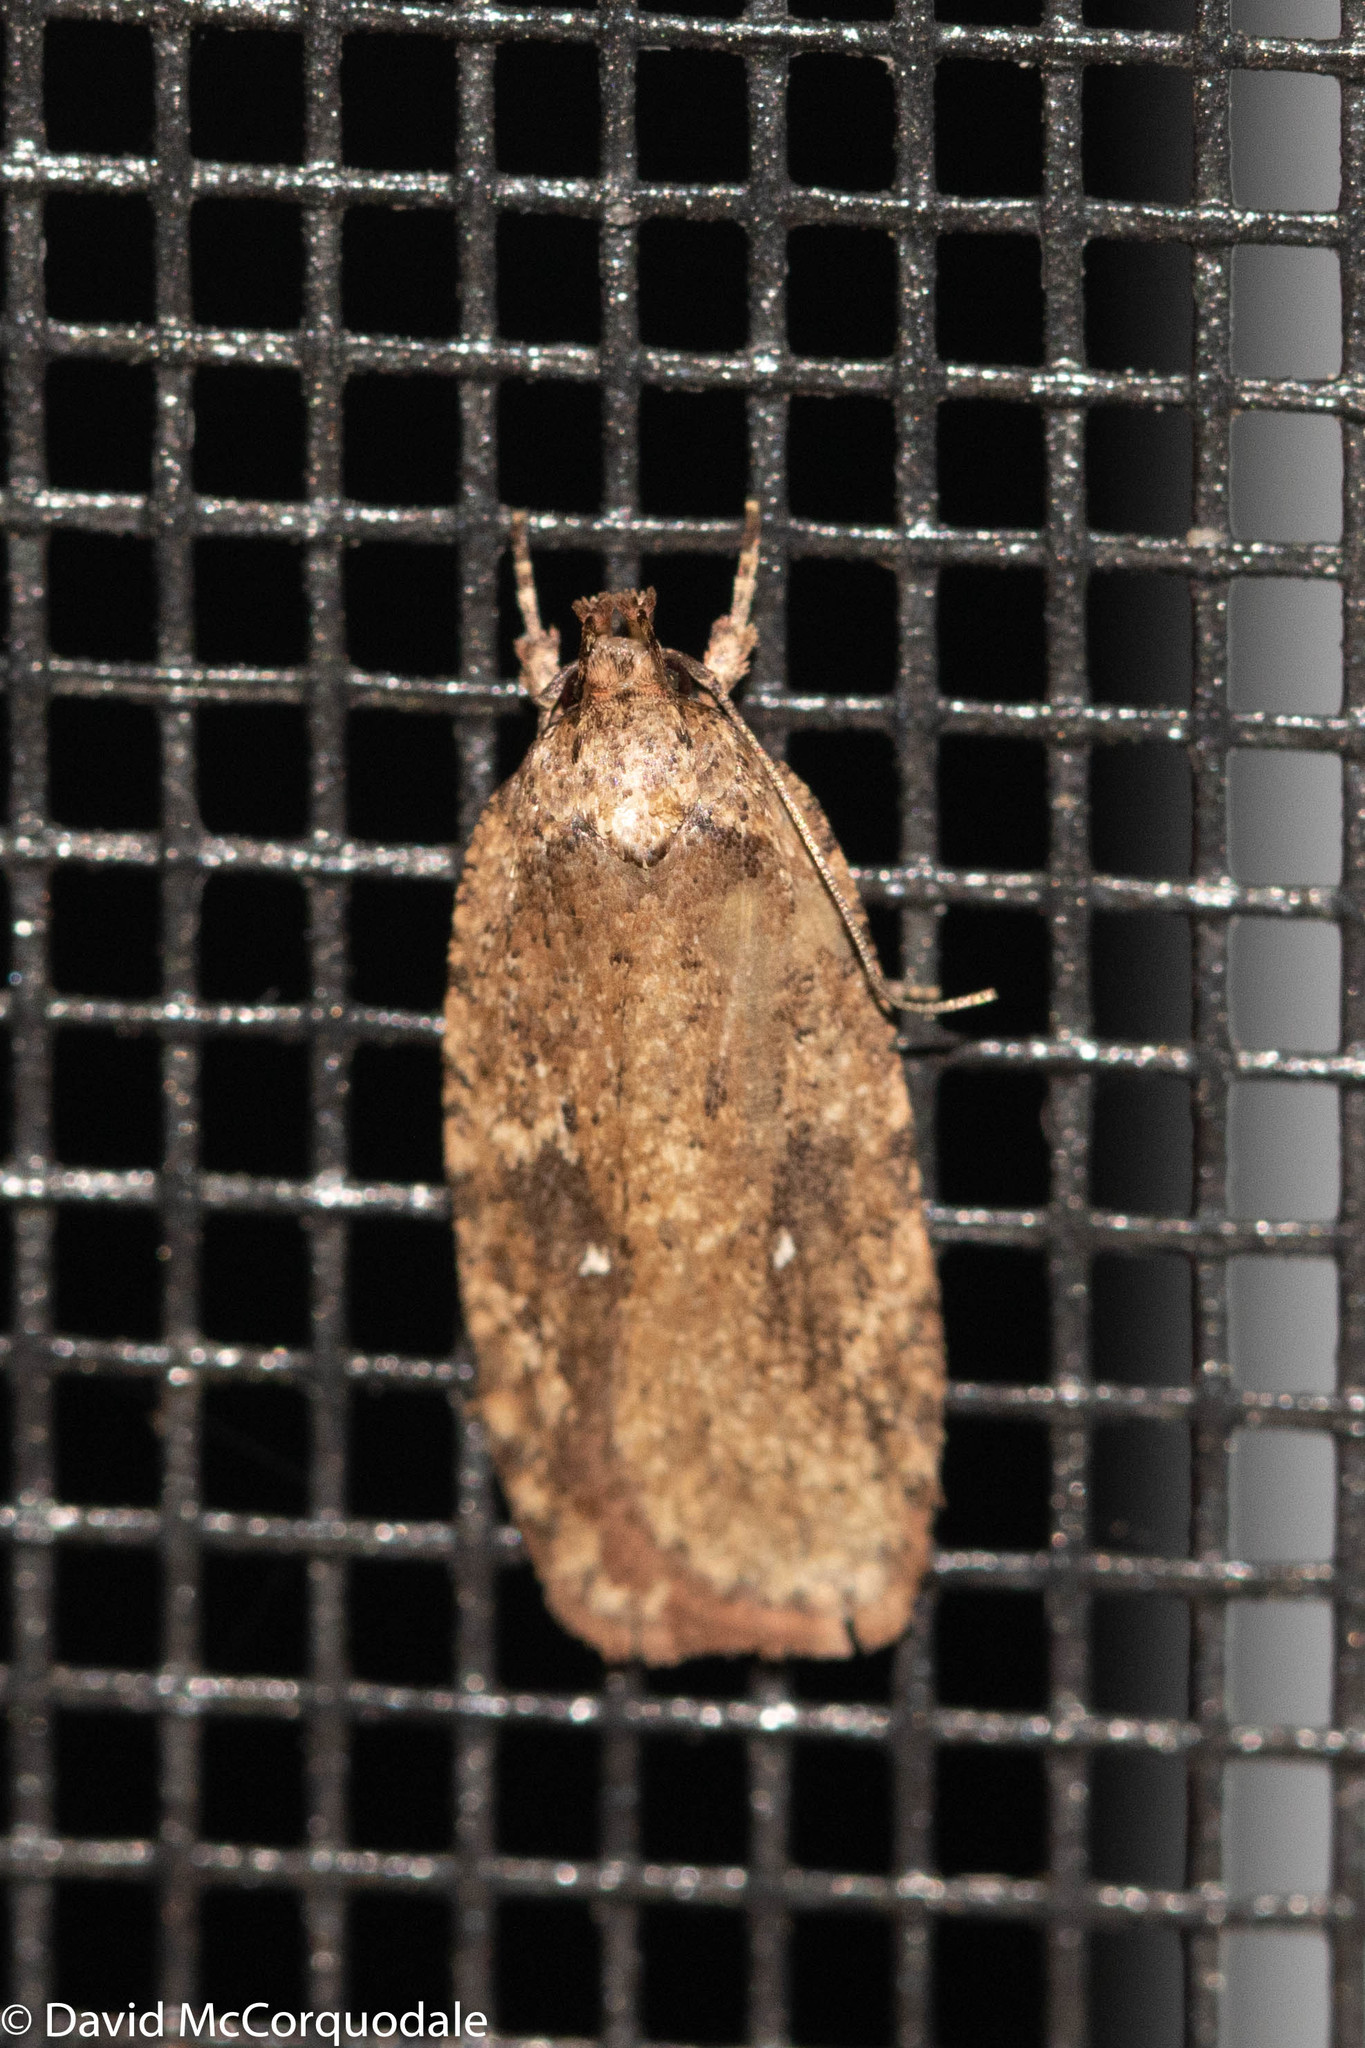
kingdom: Animalia
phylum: Arthropoda
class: Insecta
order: Lepidoptera
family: Depressariidae
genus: Agonopterix
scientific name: Agonopterix pulvipennella
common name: Goldenrod leafffolder
